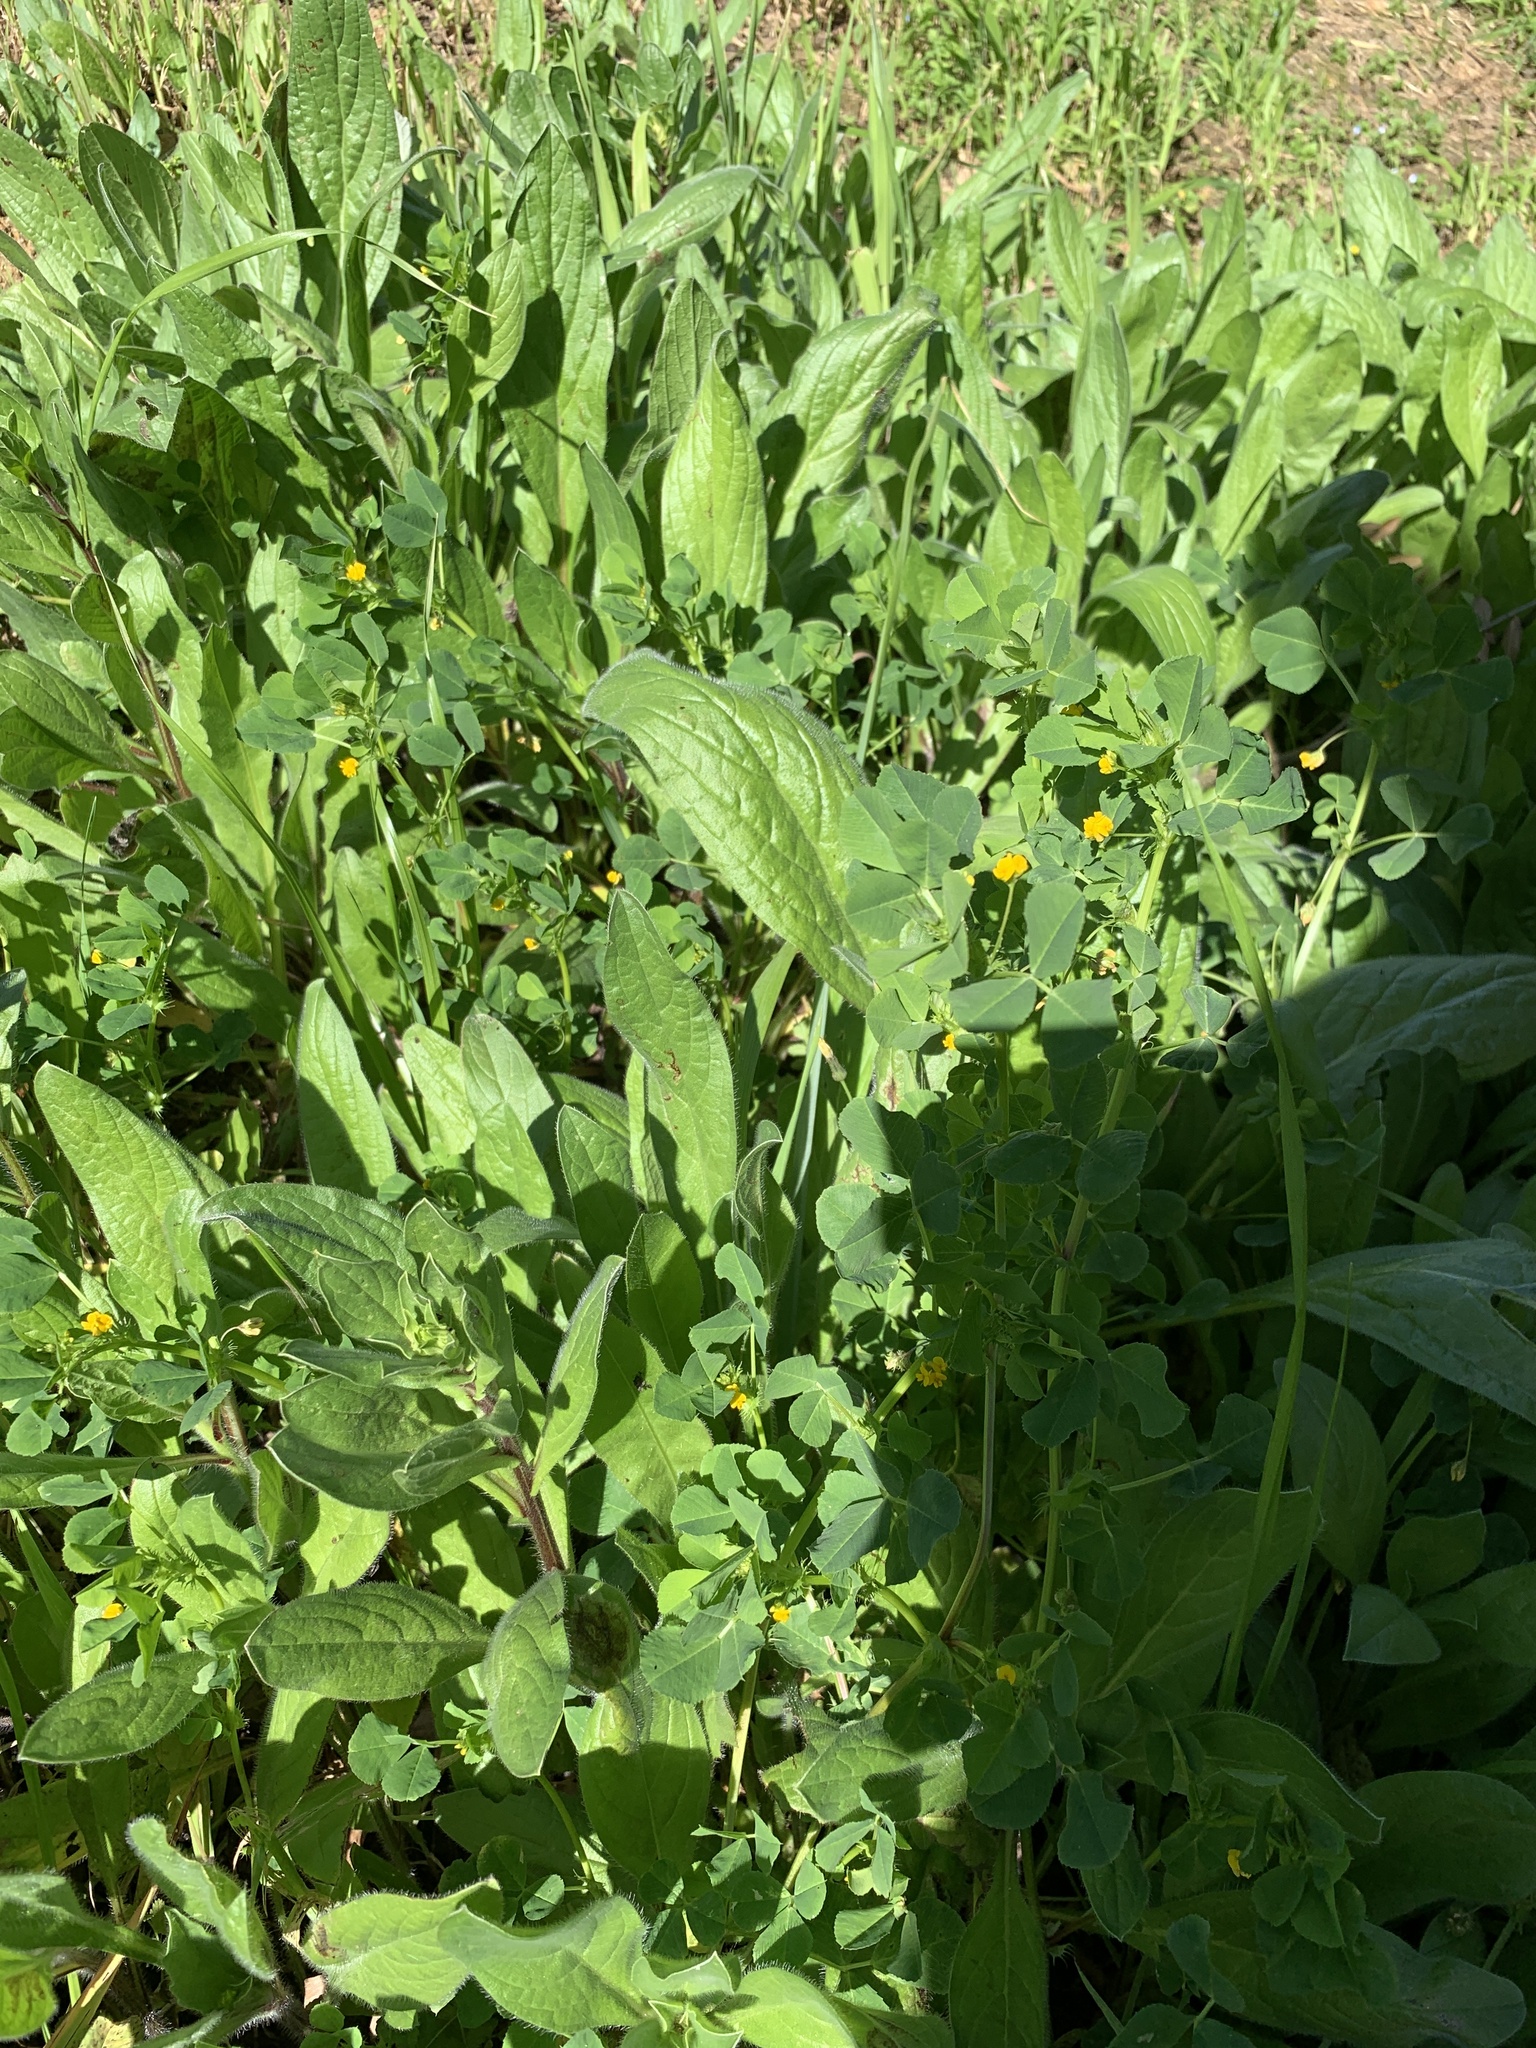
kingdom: Plantae
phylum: Tracheophyta
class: Magnoliopsida
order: Fabales
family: Fabaceae
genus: Medicago
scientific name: Medicago polymorpha
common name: Burclover
